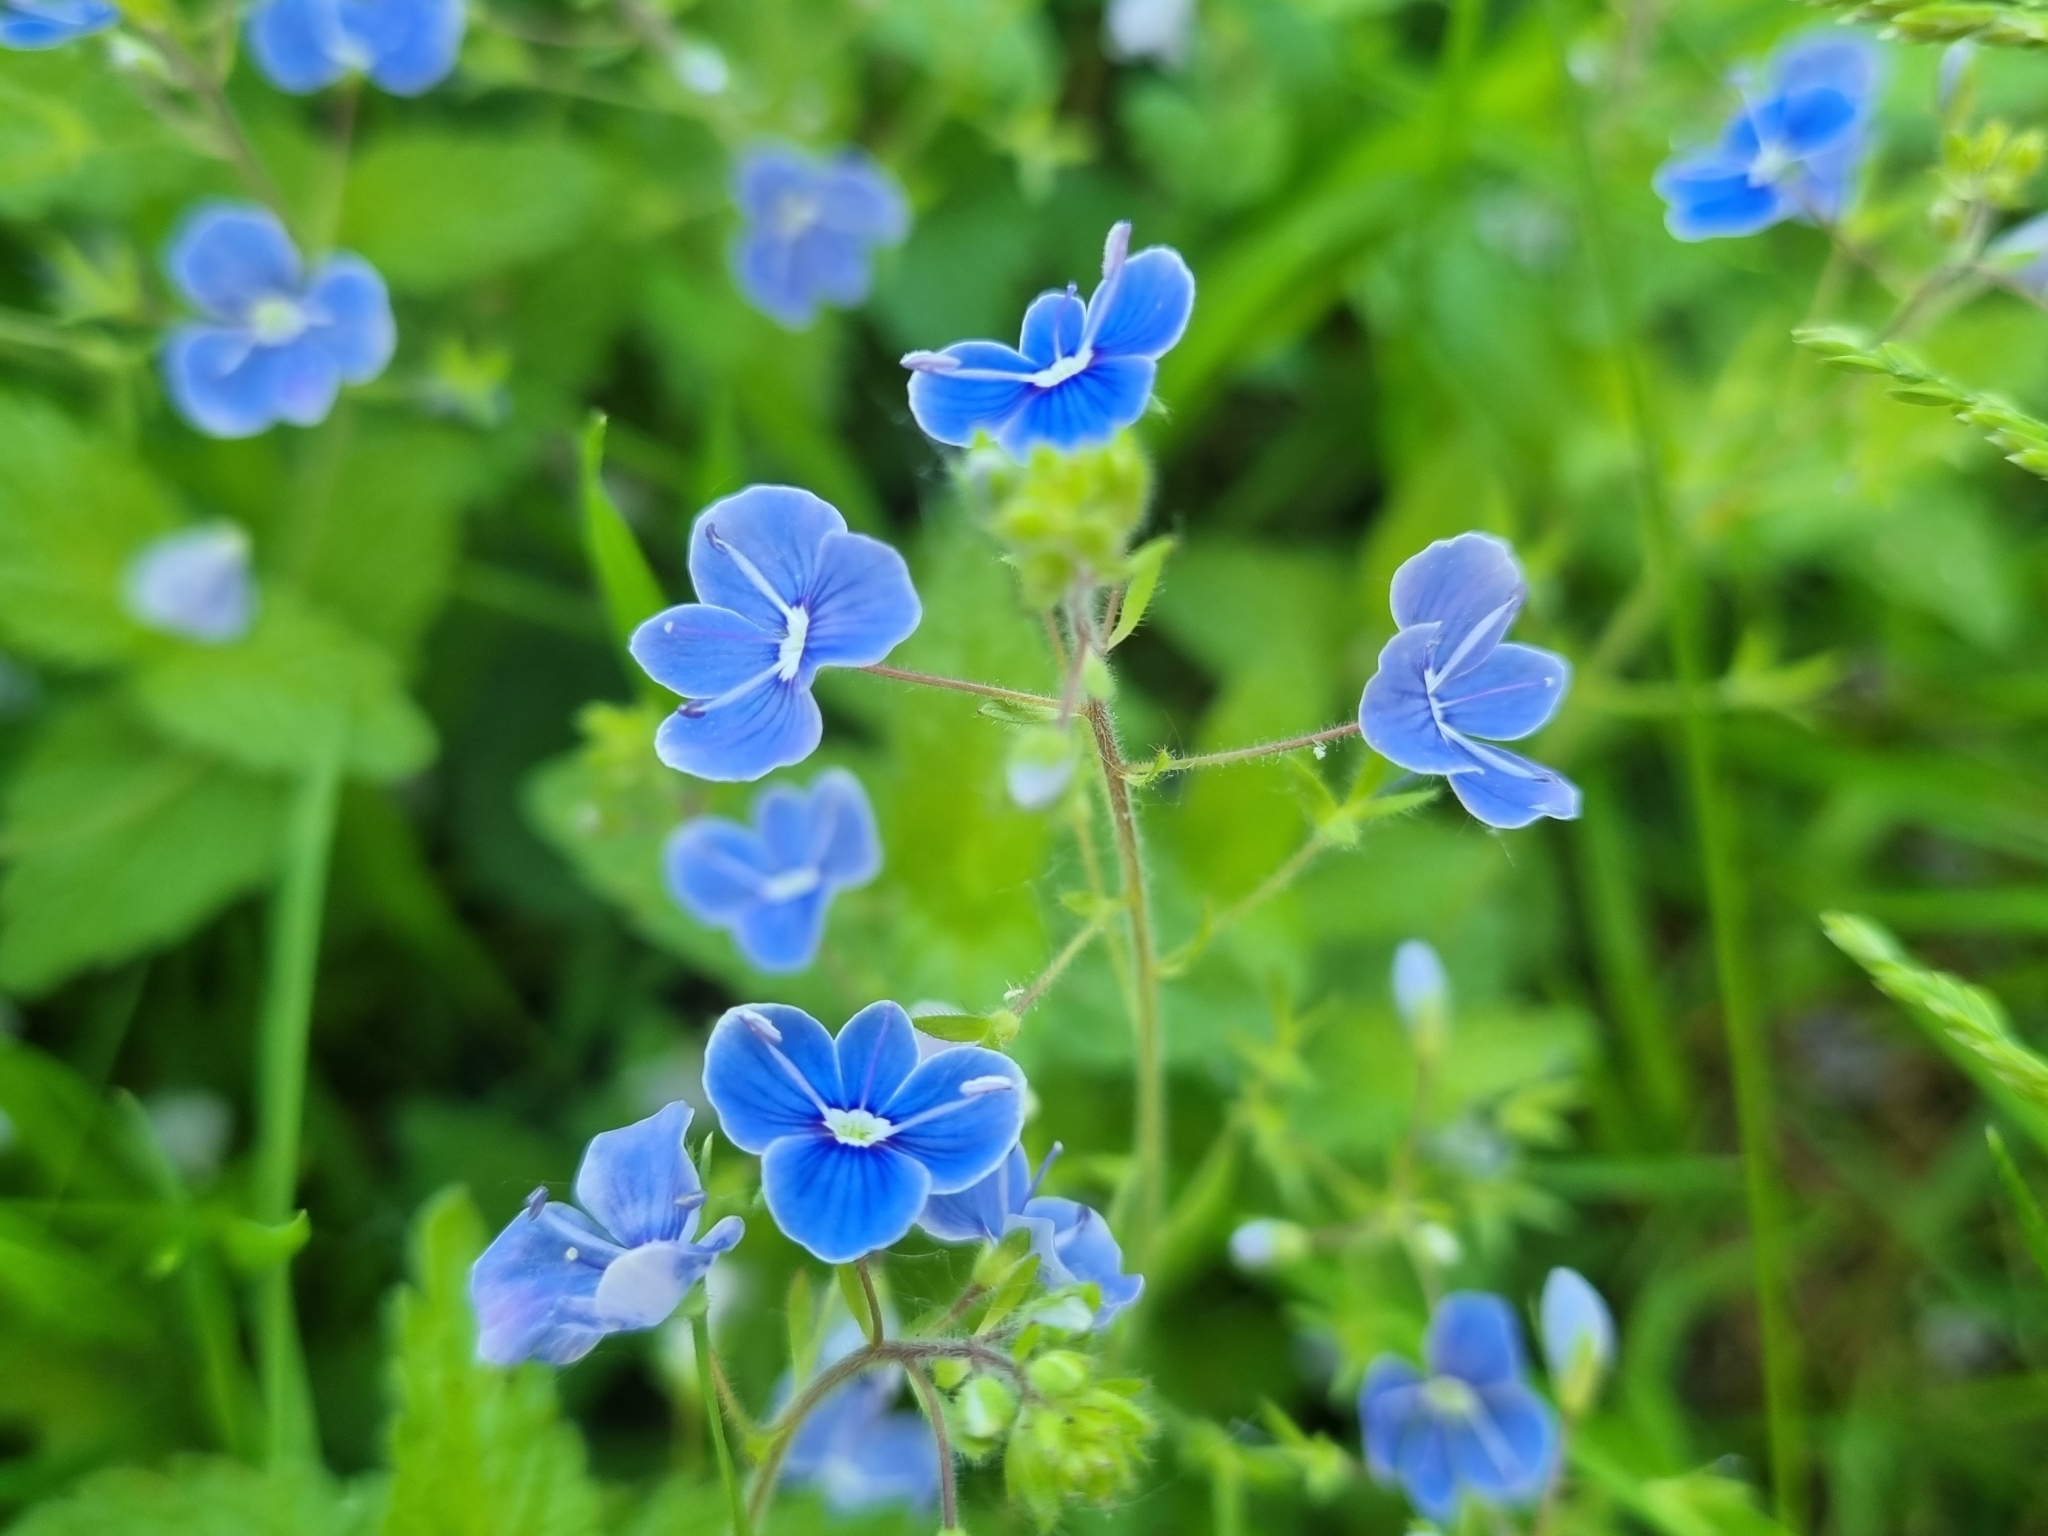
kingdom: Plantae
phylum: Tracheophyta
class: Magnoliopsida
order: Lamiales
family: Plantaginaceae
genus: Veronica
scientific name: Veronica chamaedrys
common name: Germander speedwell
